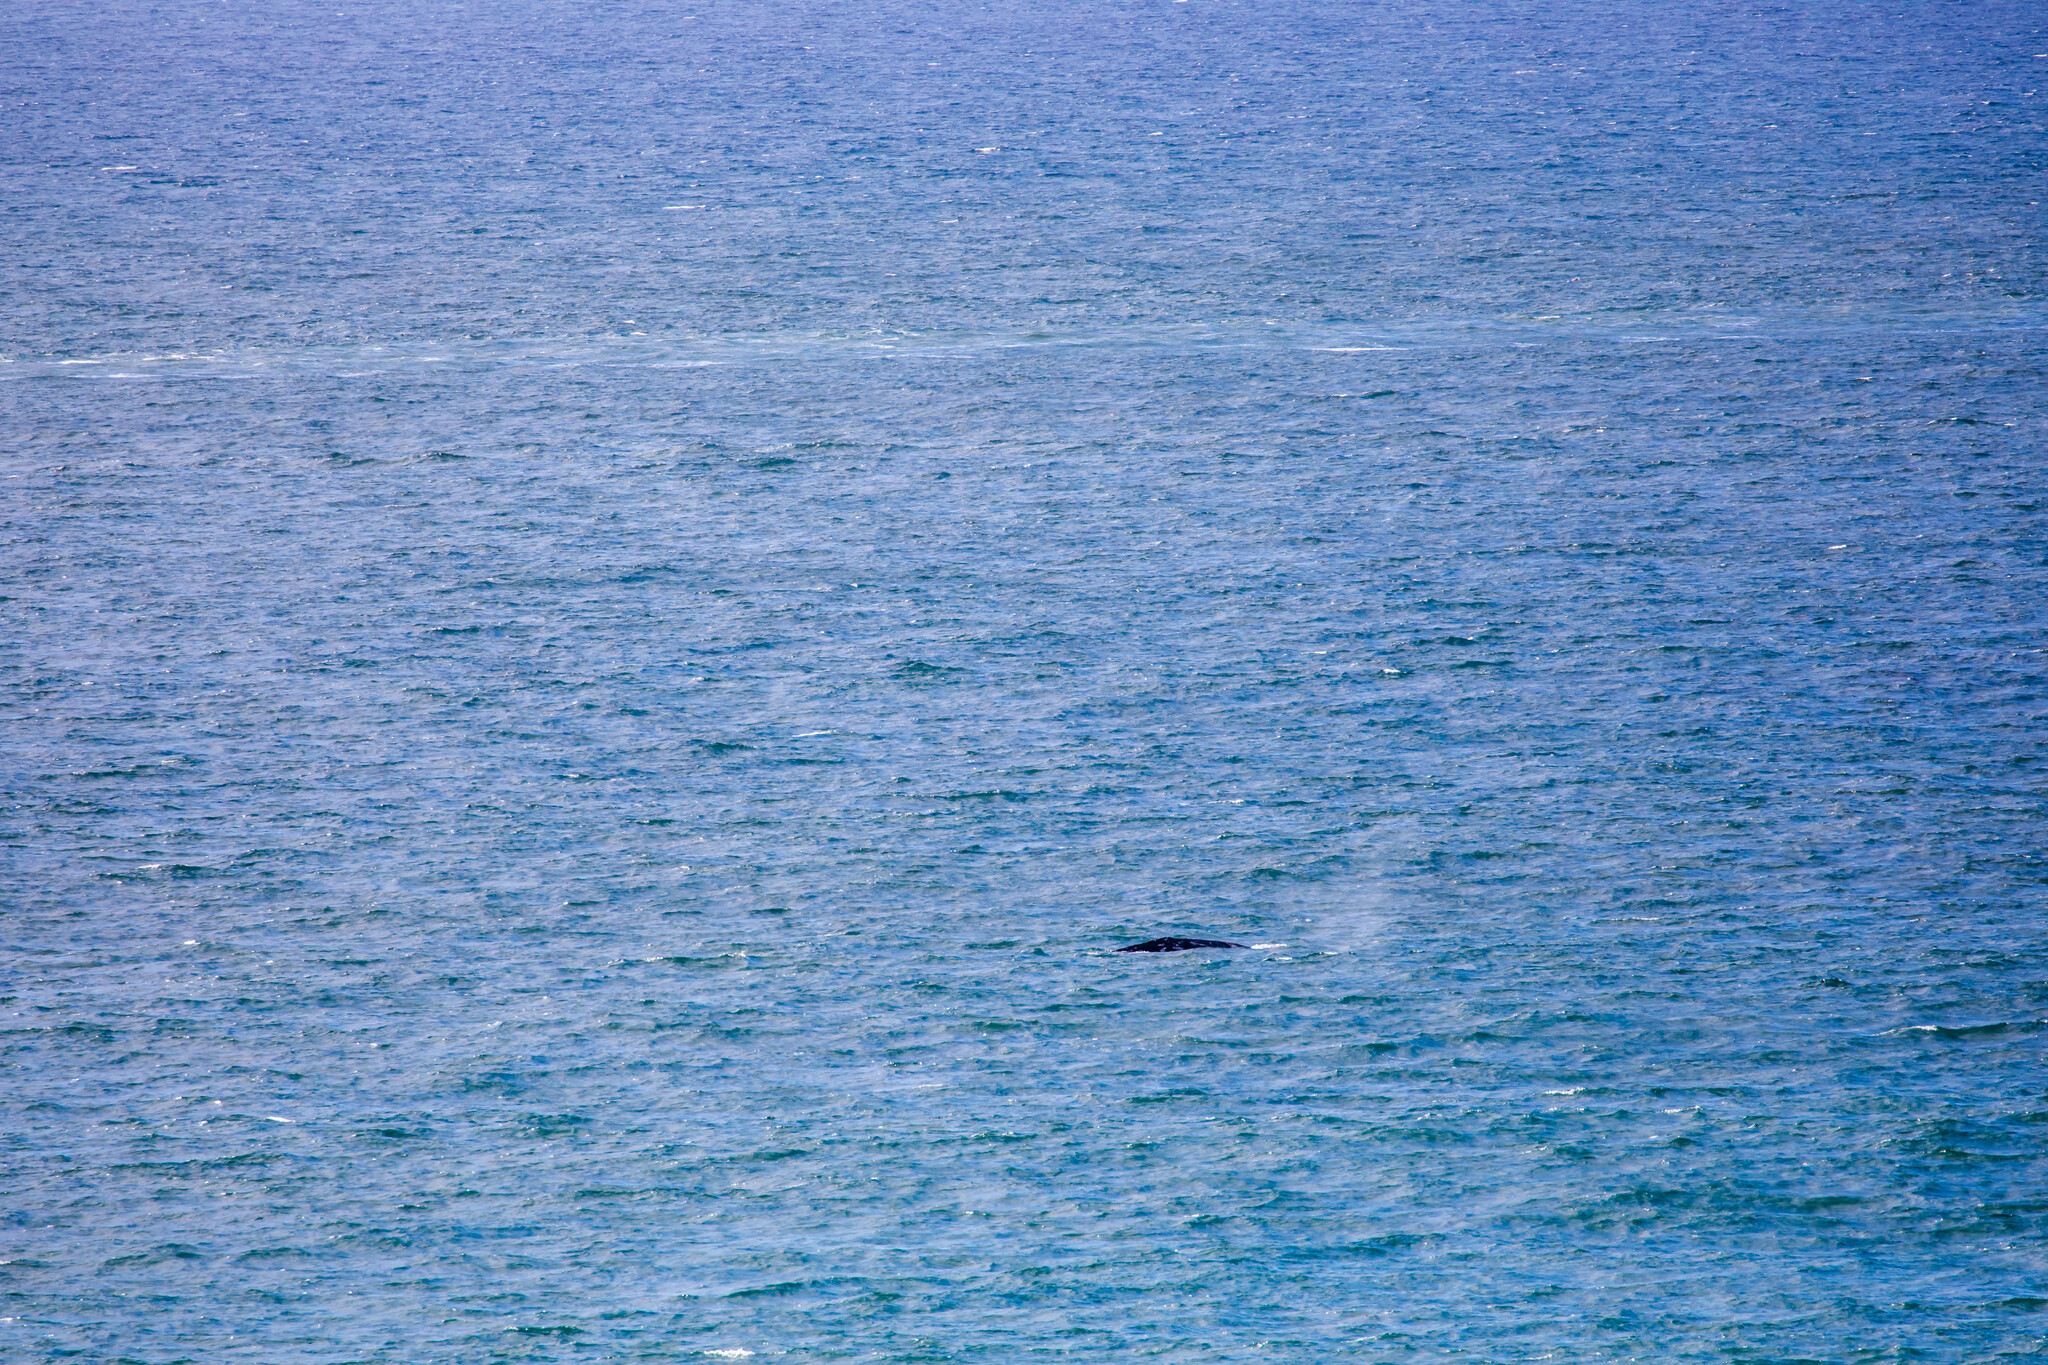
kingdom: Animalia
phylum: Chordata
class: Mammalia
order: Cetacea
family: Eschrichtiidae
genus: Eschrichtius
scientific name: Eschrichtius robustus
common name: Gray whale
